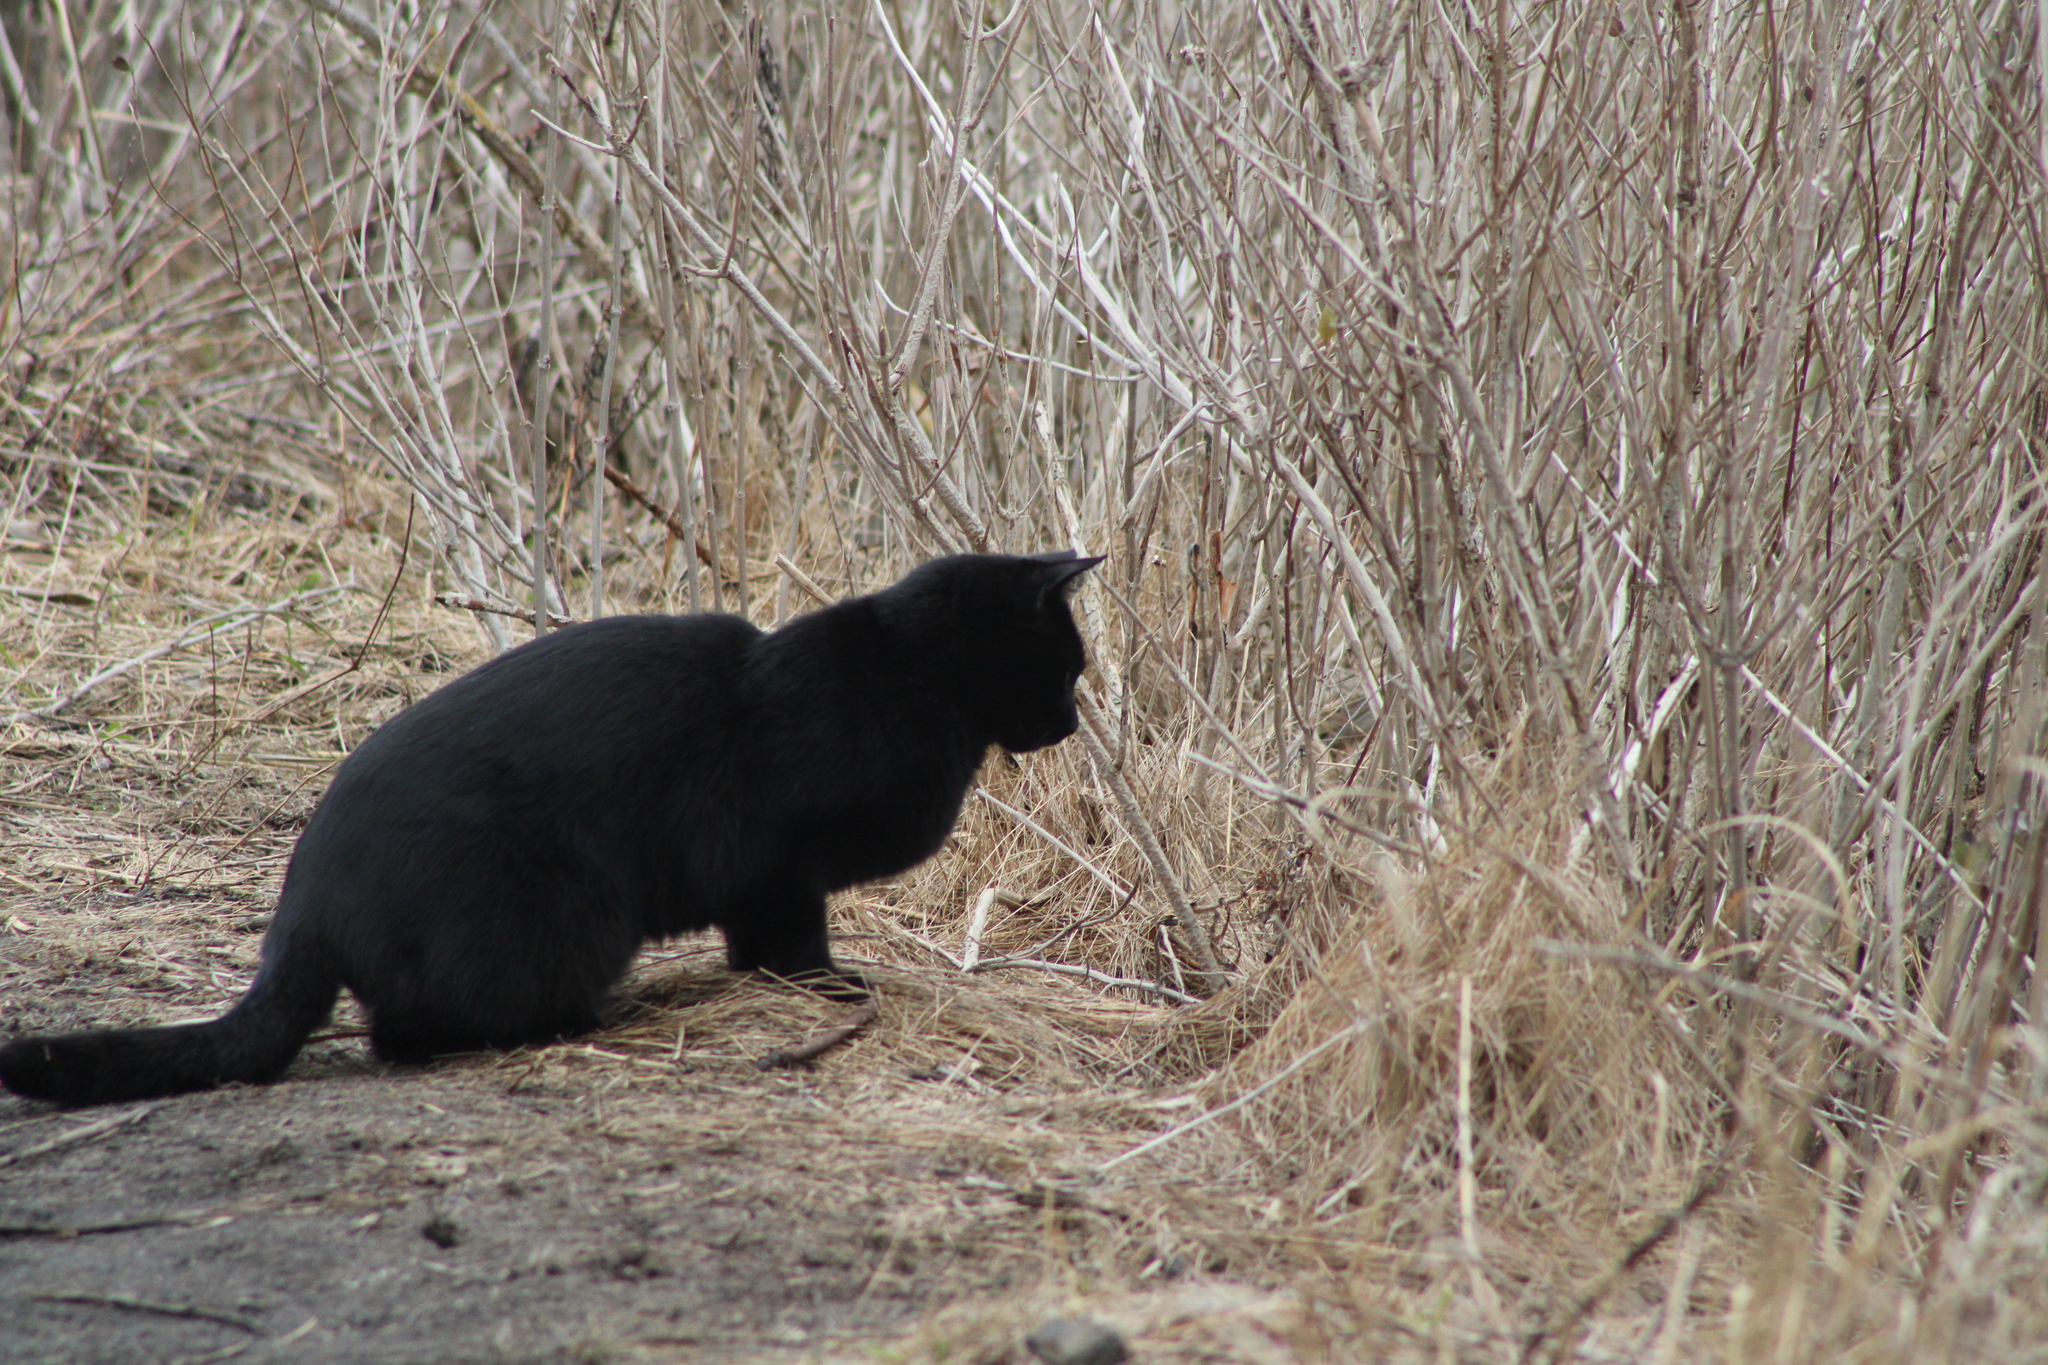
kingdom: Animalia
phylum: Chordata
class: Mammalia
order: Carnivora
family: Felidae
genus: Felis
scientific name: Felis catus
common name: Domestic cat
